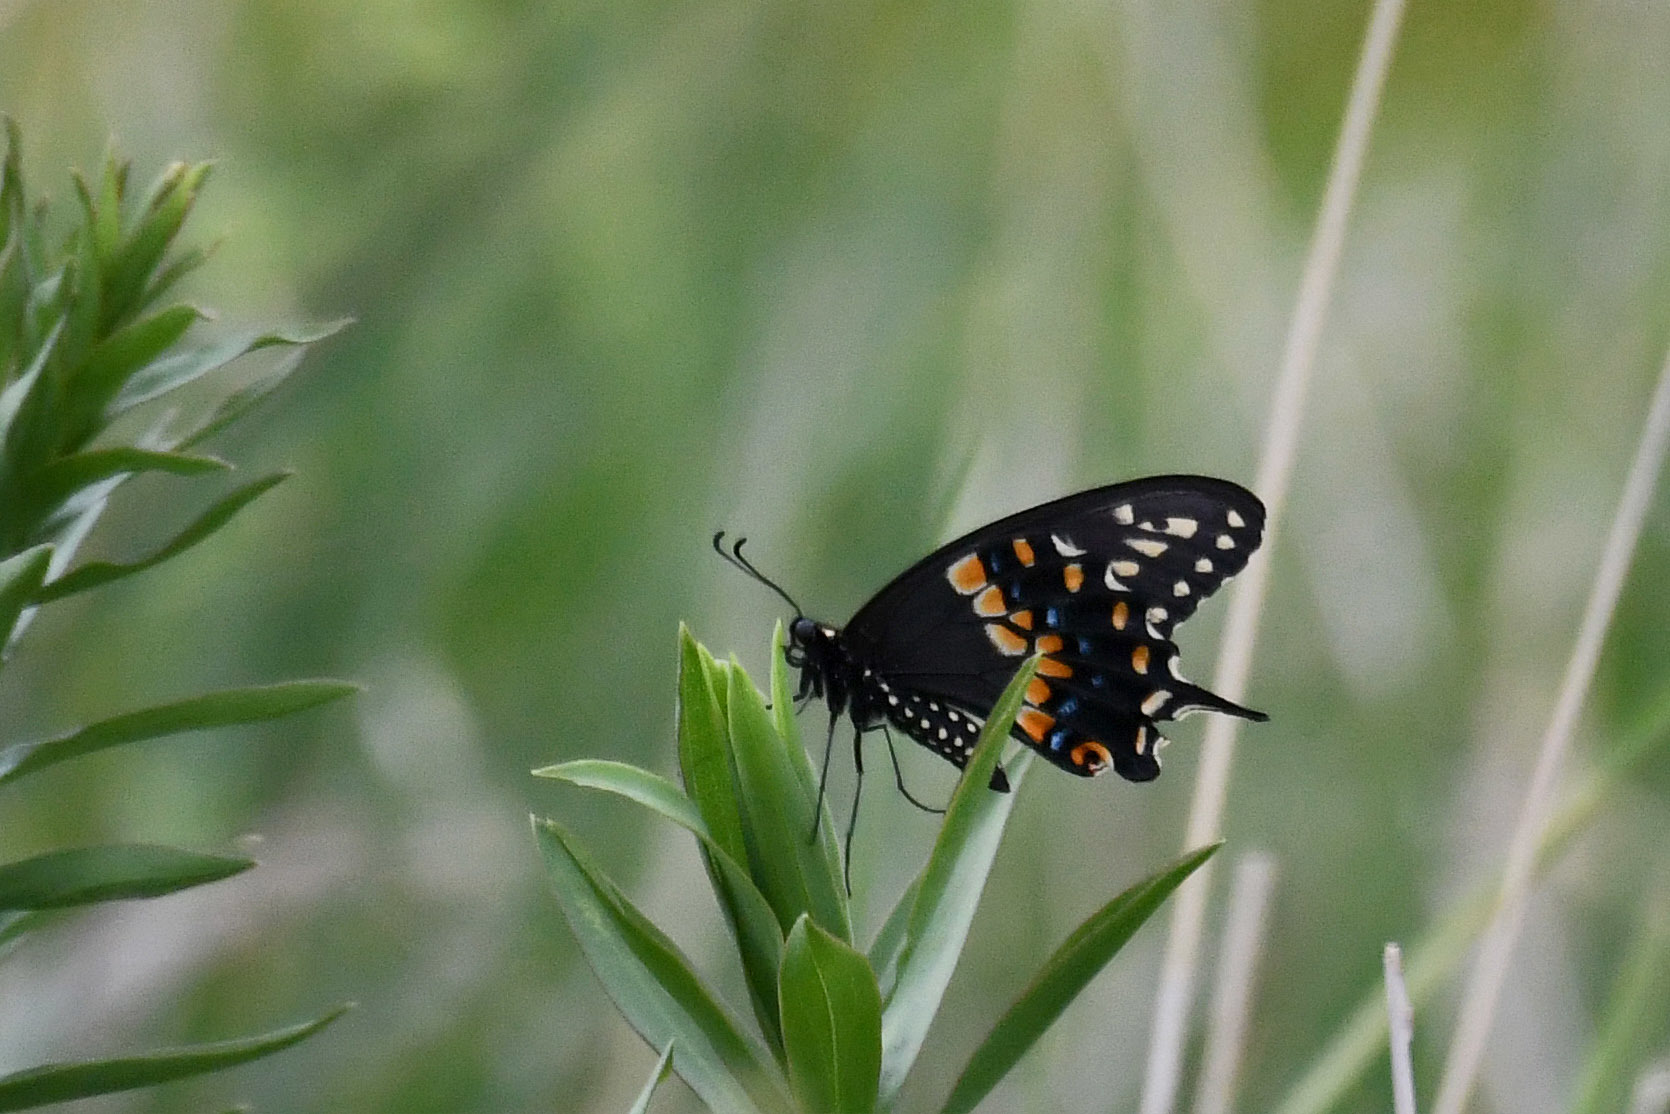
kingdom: Animalia
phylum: Arthropoda
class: Insecta
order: Lepidoptera
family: Papilionidae
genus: Papilio
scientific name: Papilio polyxenes
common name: Black swallowtail
